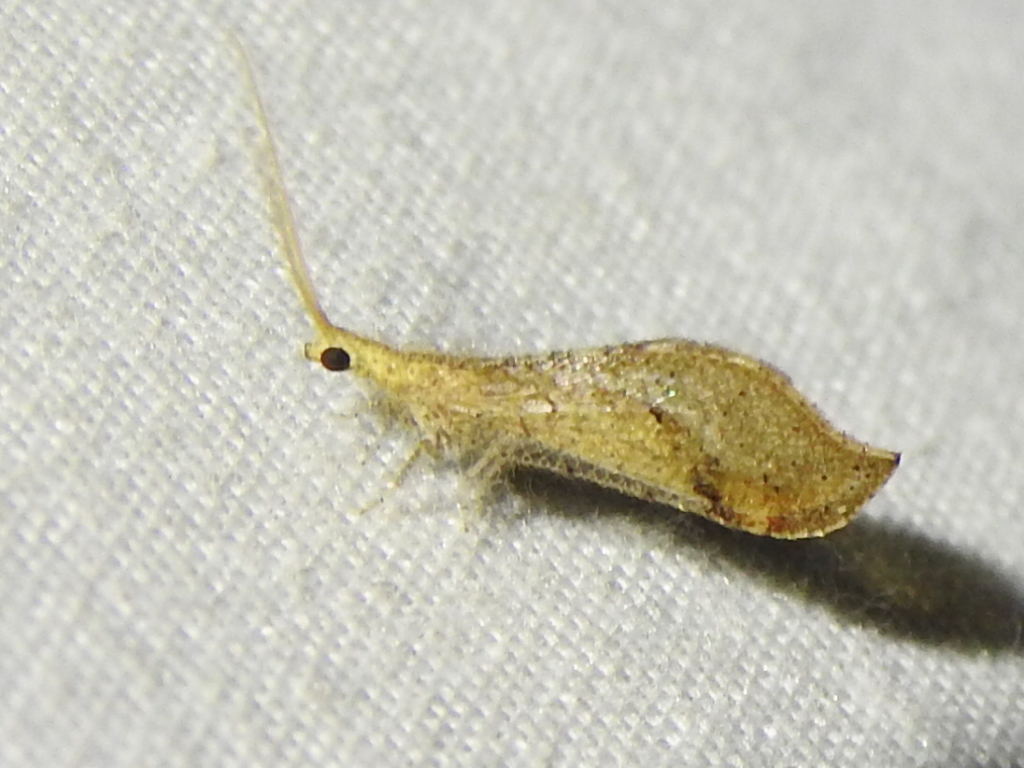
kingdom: Animalia
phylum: Arthropoda
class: Insecta
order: Neuroptera
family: Berothidae
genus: Lomamyia
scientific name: Lomamyia squamosa
